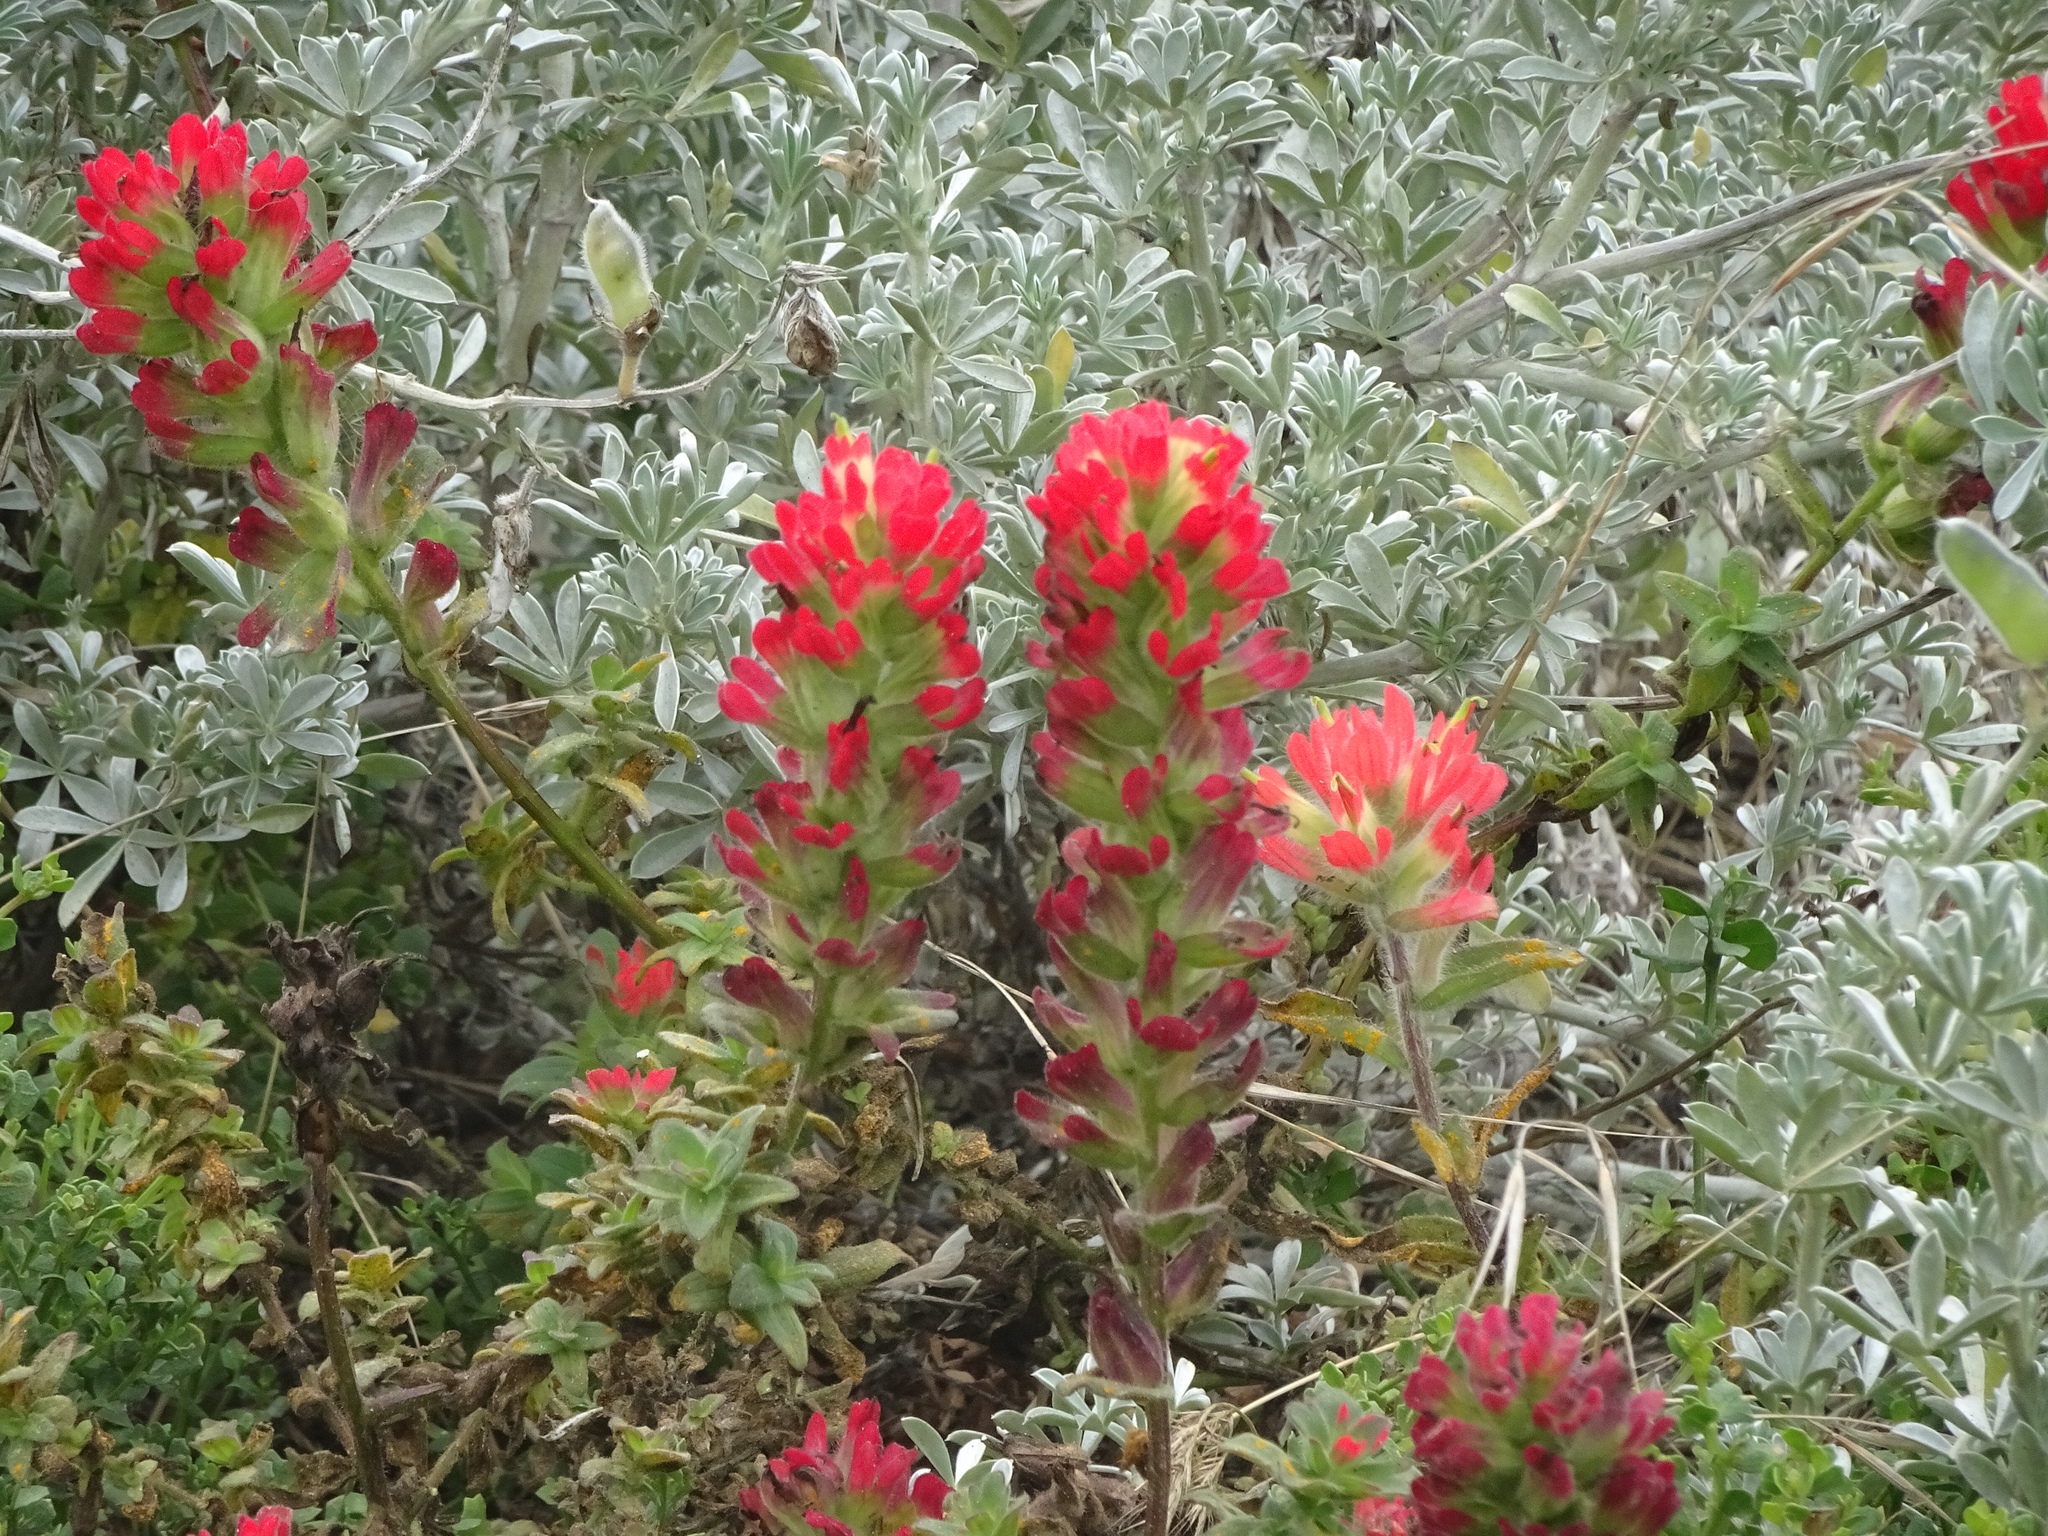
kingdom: Plantae
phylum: Tracheophyta
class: Magnoliopsida
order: Lamiales
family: Orobanchaceae
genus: Castilleja
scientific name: Castilleja affinis
